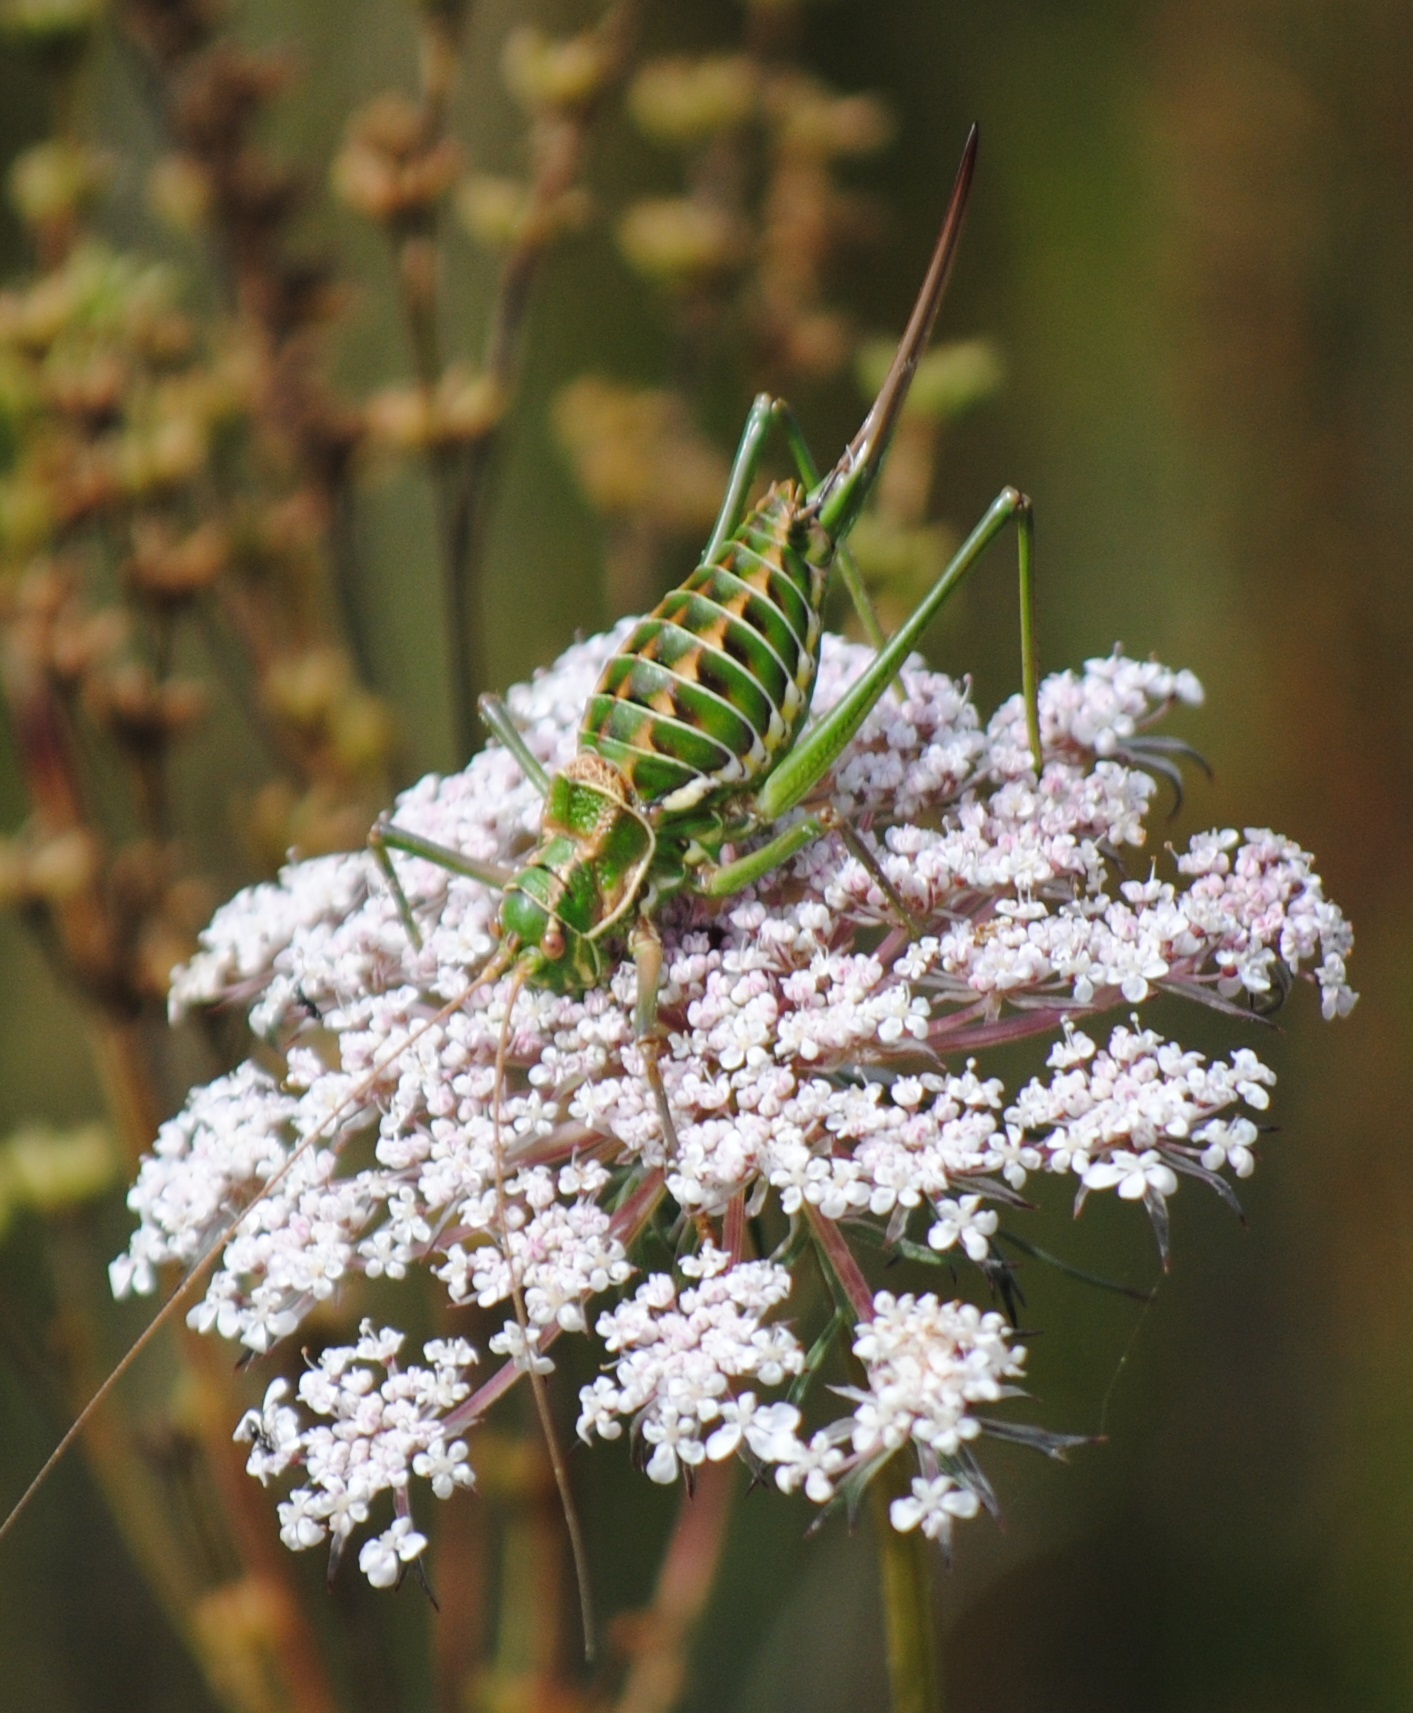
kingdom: Animalia
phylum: Arthropoda
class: Insecta
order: Orthoptera
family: Tettigoniidae
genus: Ephippigerida
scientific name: Ephippigerida diluta
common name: Diluted saddle bush-cricket
